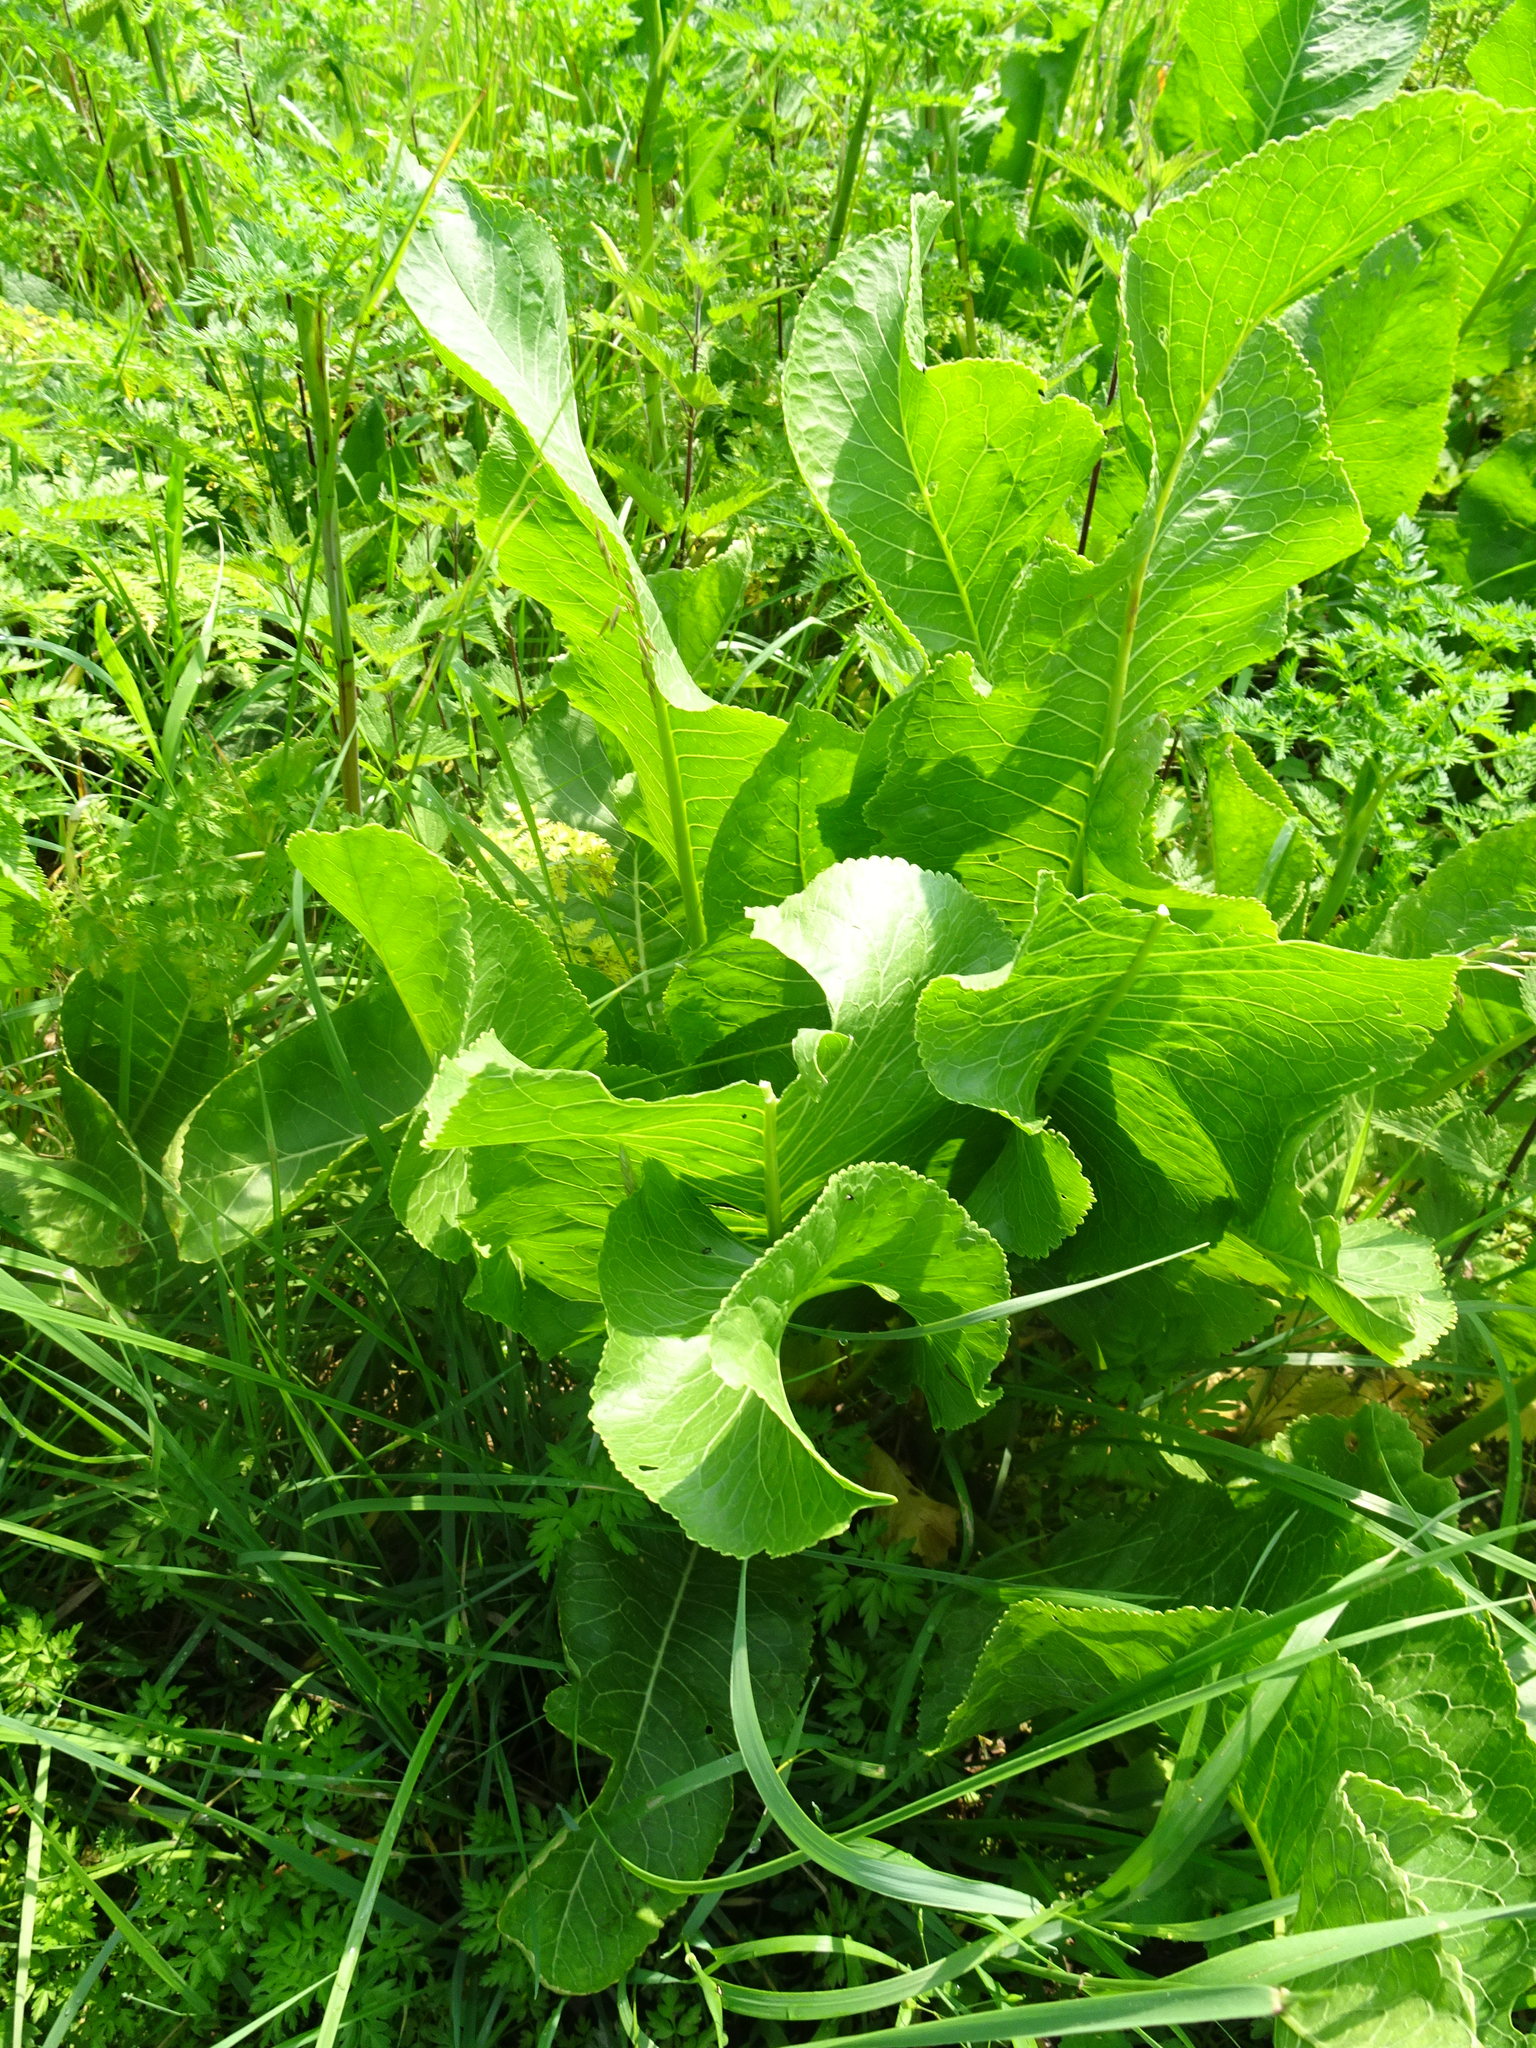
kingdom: Plantae
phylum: Tracheophyta
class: Magnoliopsida
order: Brassicales
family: Brassicaceae
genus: Armoracia
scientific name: Armoracia rusticana
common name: Horseradish
